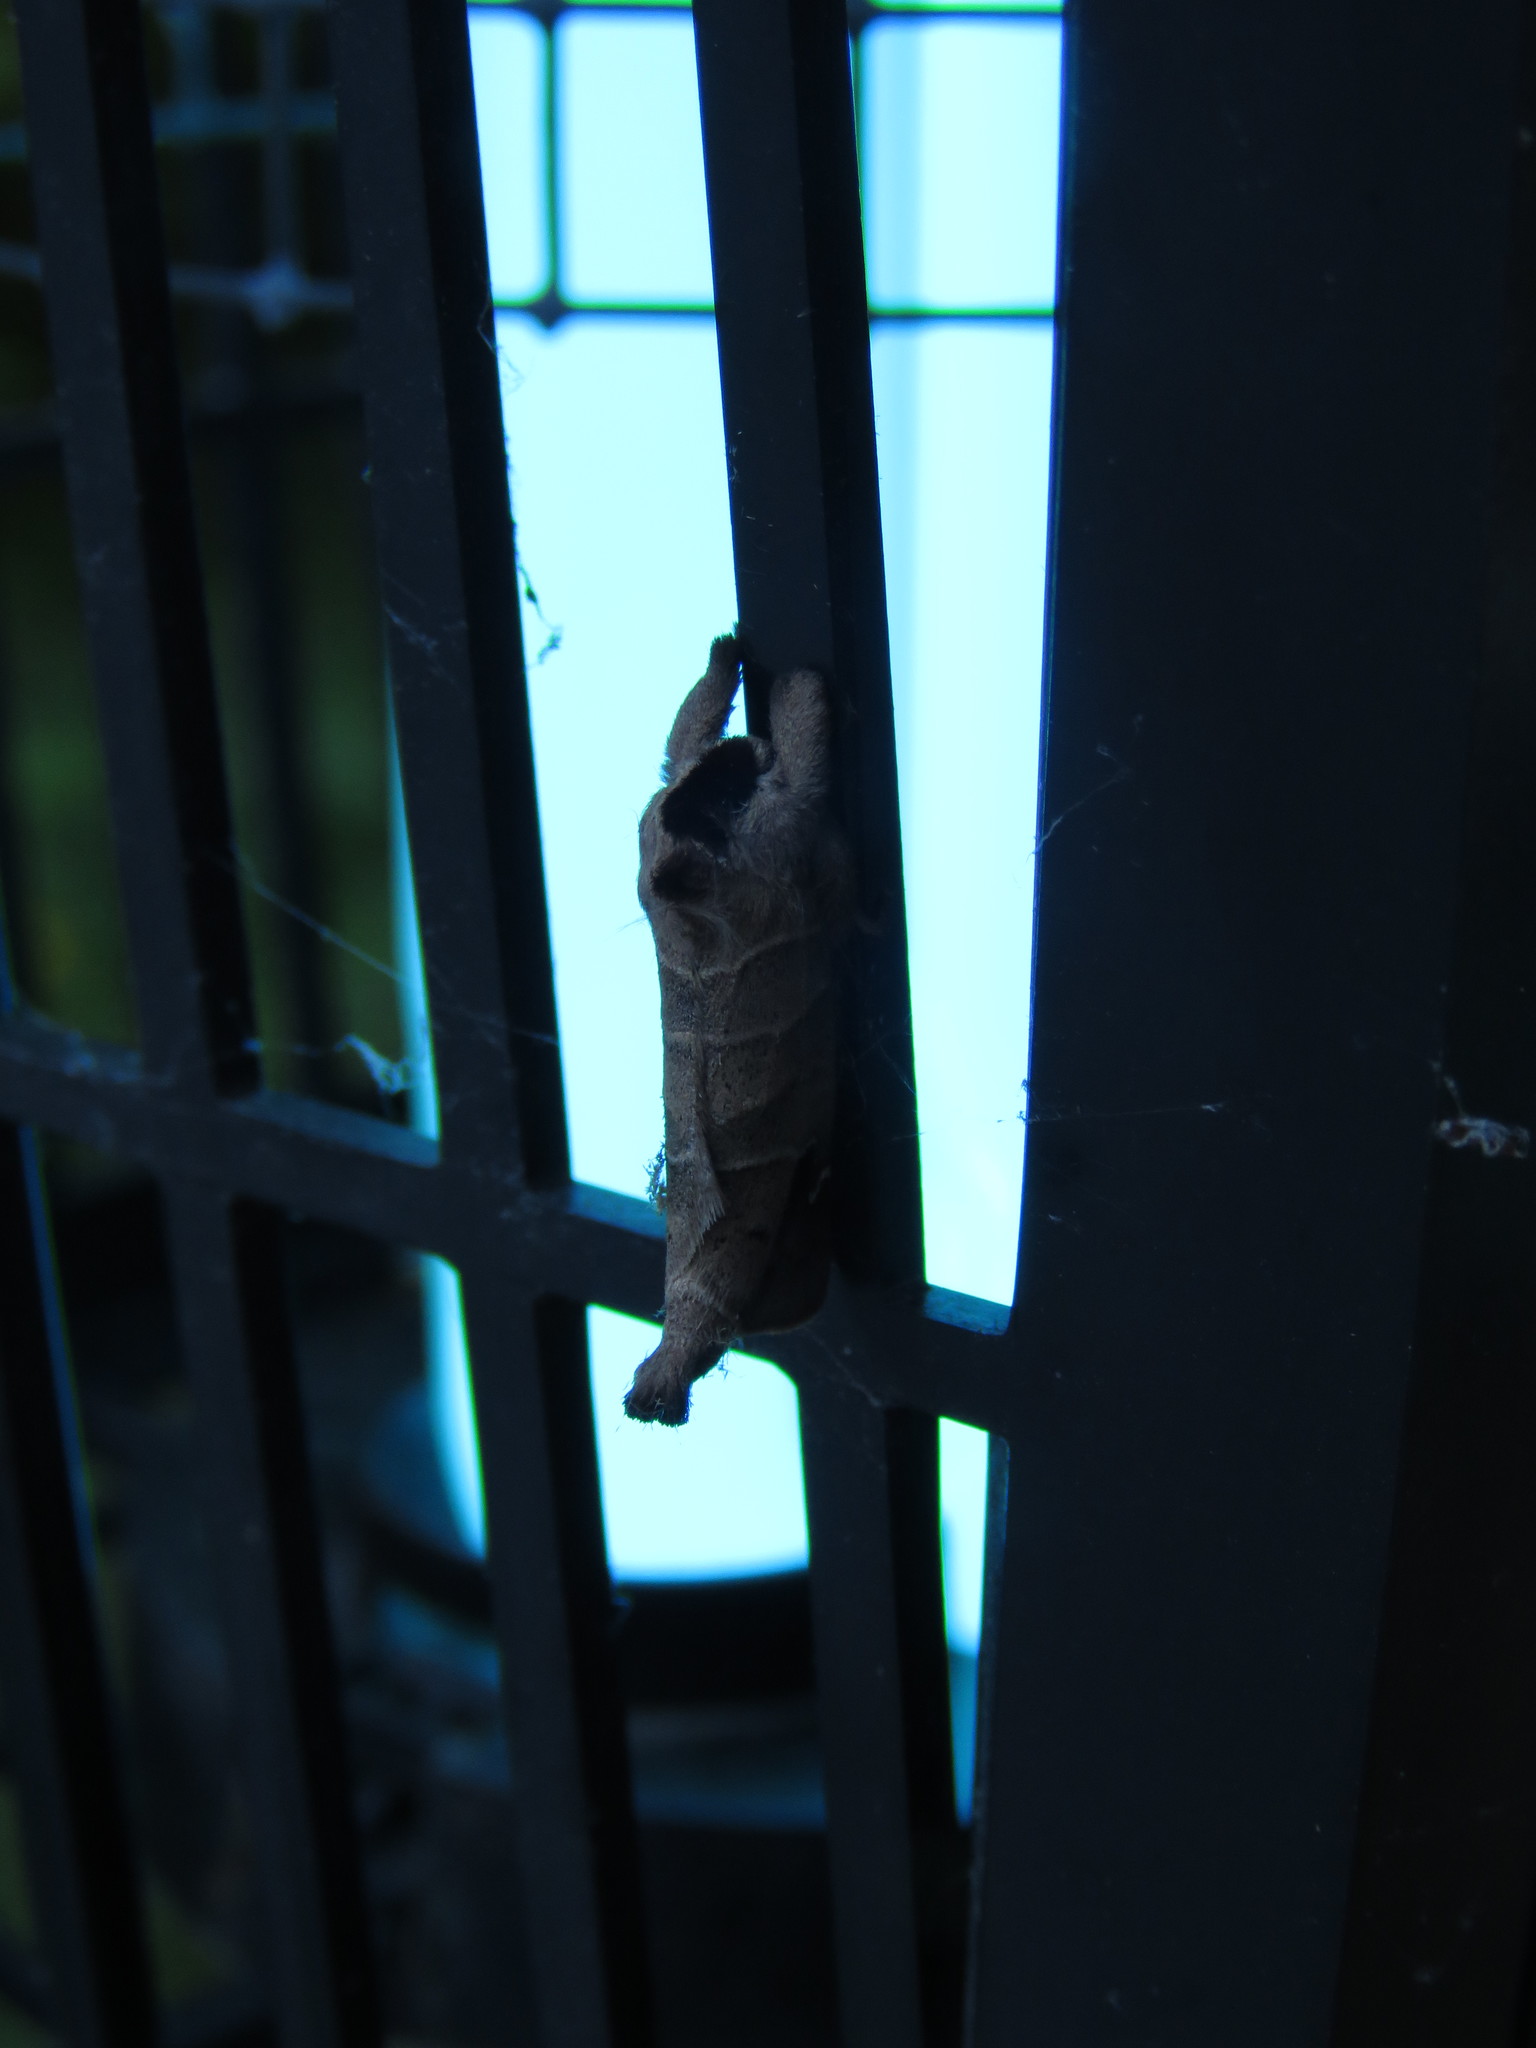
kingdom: Animalia
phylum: Arthropoda
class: Insecta
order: Lepidoptera
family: Notodontidae
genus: Clostera
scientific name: Clostera albosigma
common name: Sigmoid prominent
